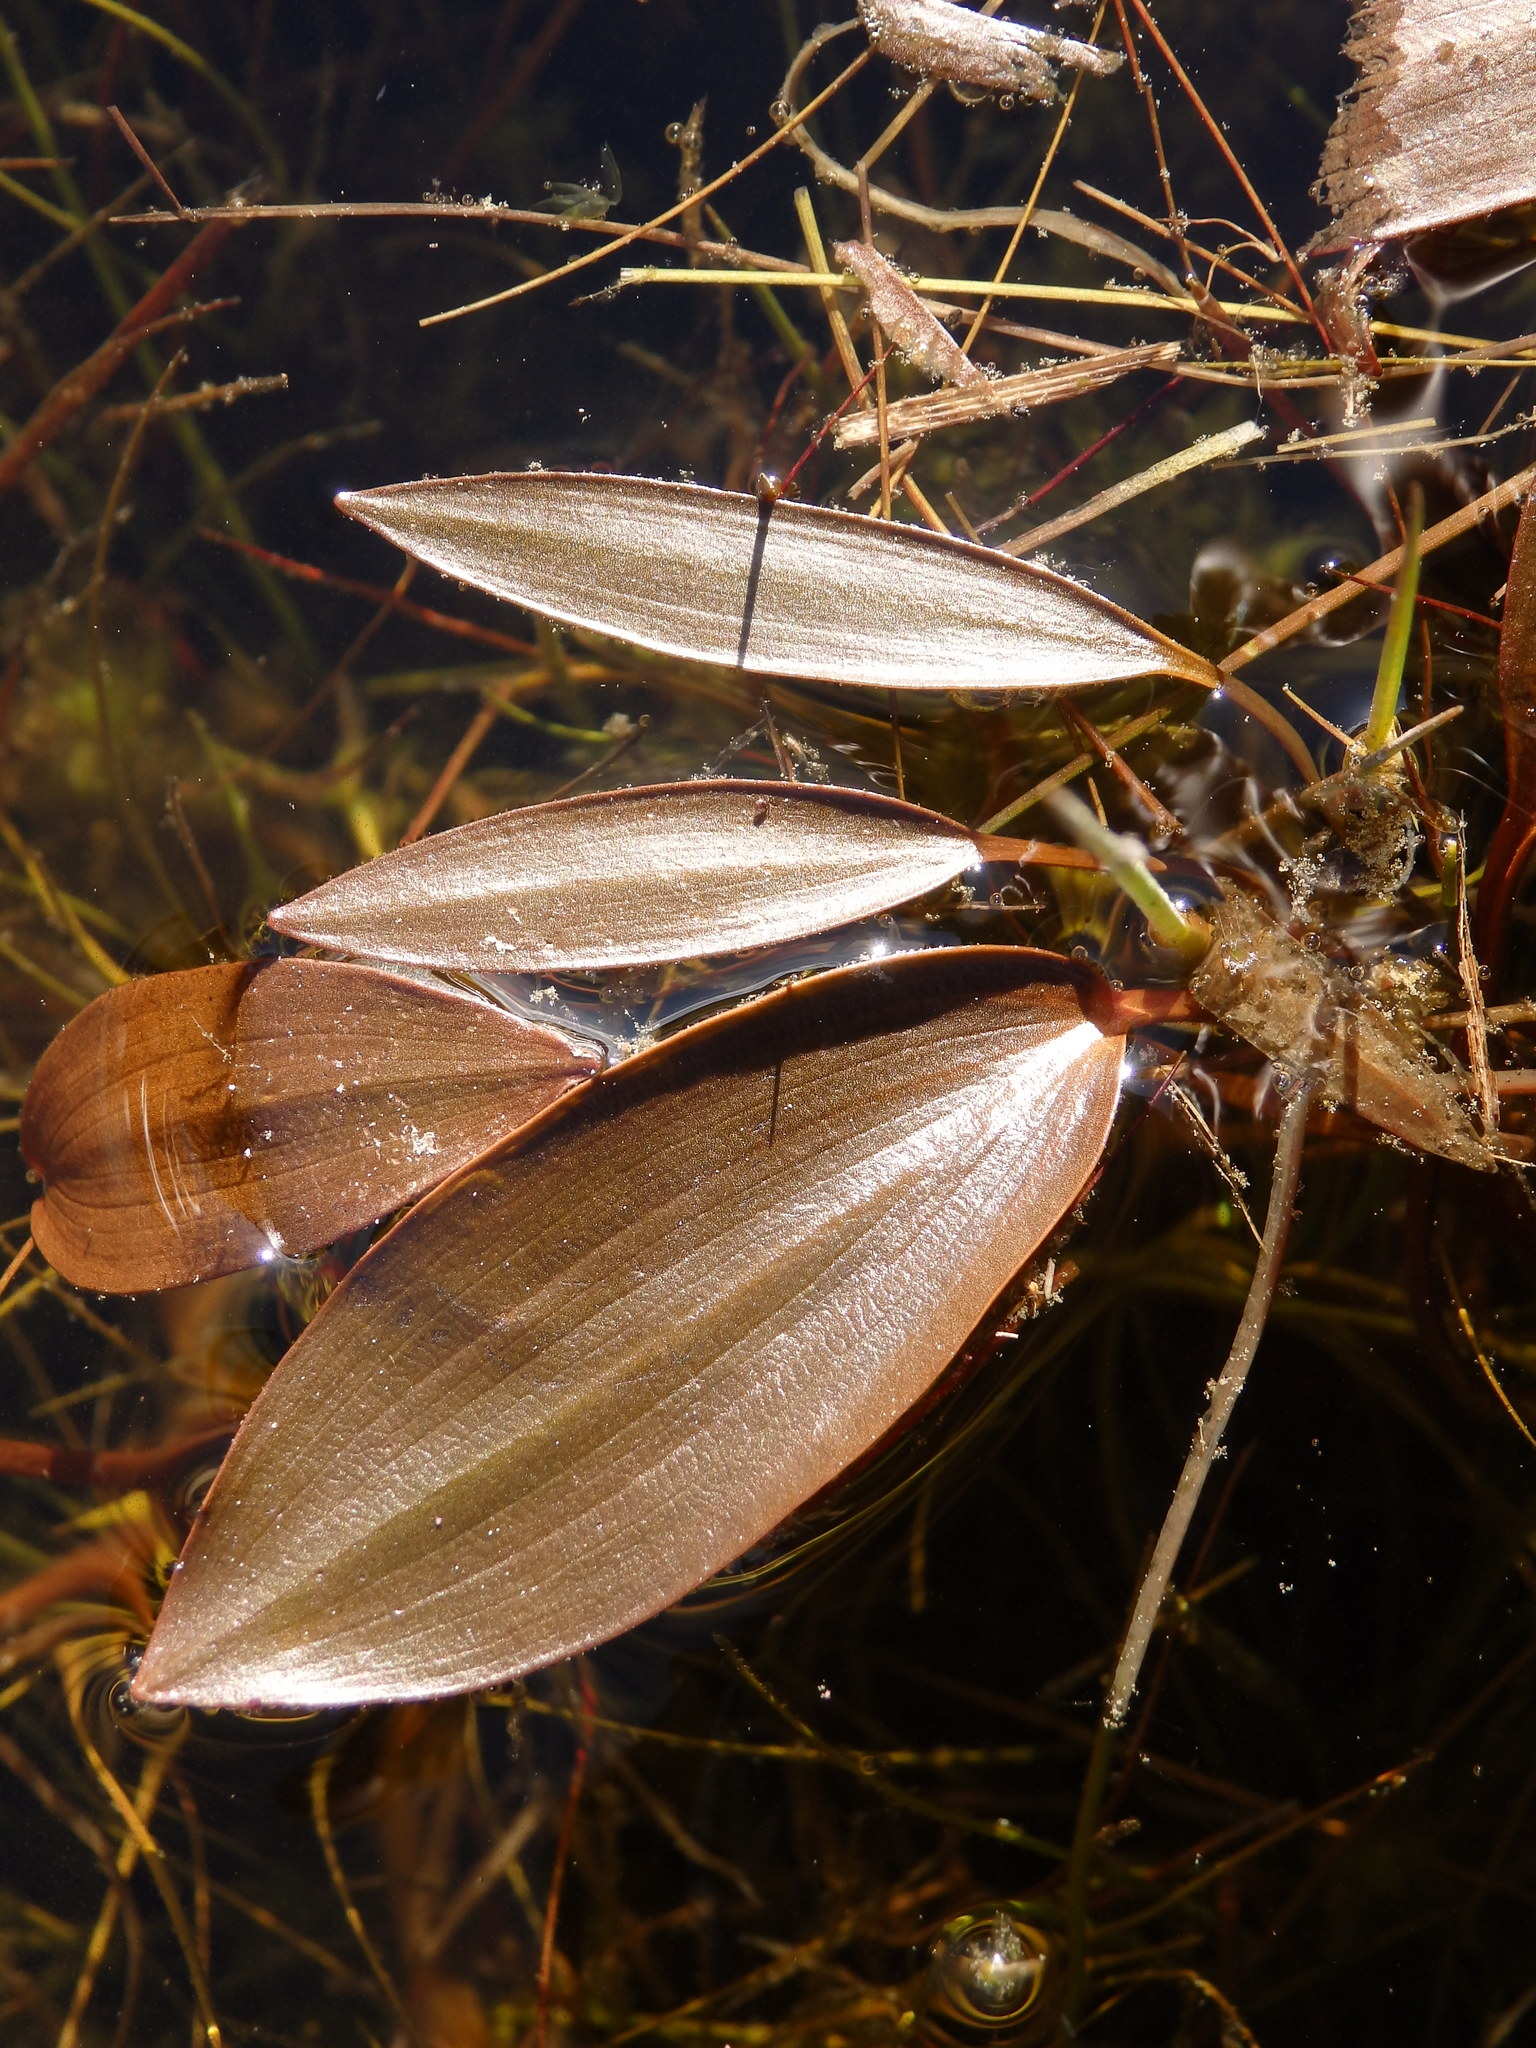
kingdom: Plantae
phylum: Tracheophyta
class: Liliopsida
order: Alismatales
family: Potamogetonaceae
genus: Potamogeton
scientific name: Potamogeton natans
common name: Broad-leaved pondweed
